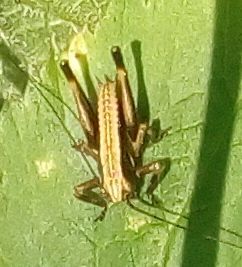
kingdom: Animalia
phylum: Arthropoda
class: Insecta
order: Orthoptera
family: Tettigoniidae
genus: Pholidoptera
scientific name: Pholidoptera griseoaptera
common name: Dark bush-cricket
